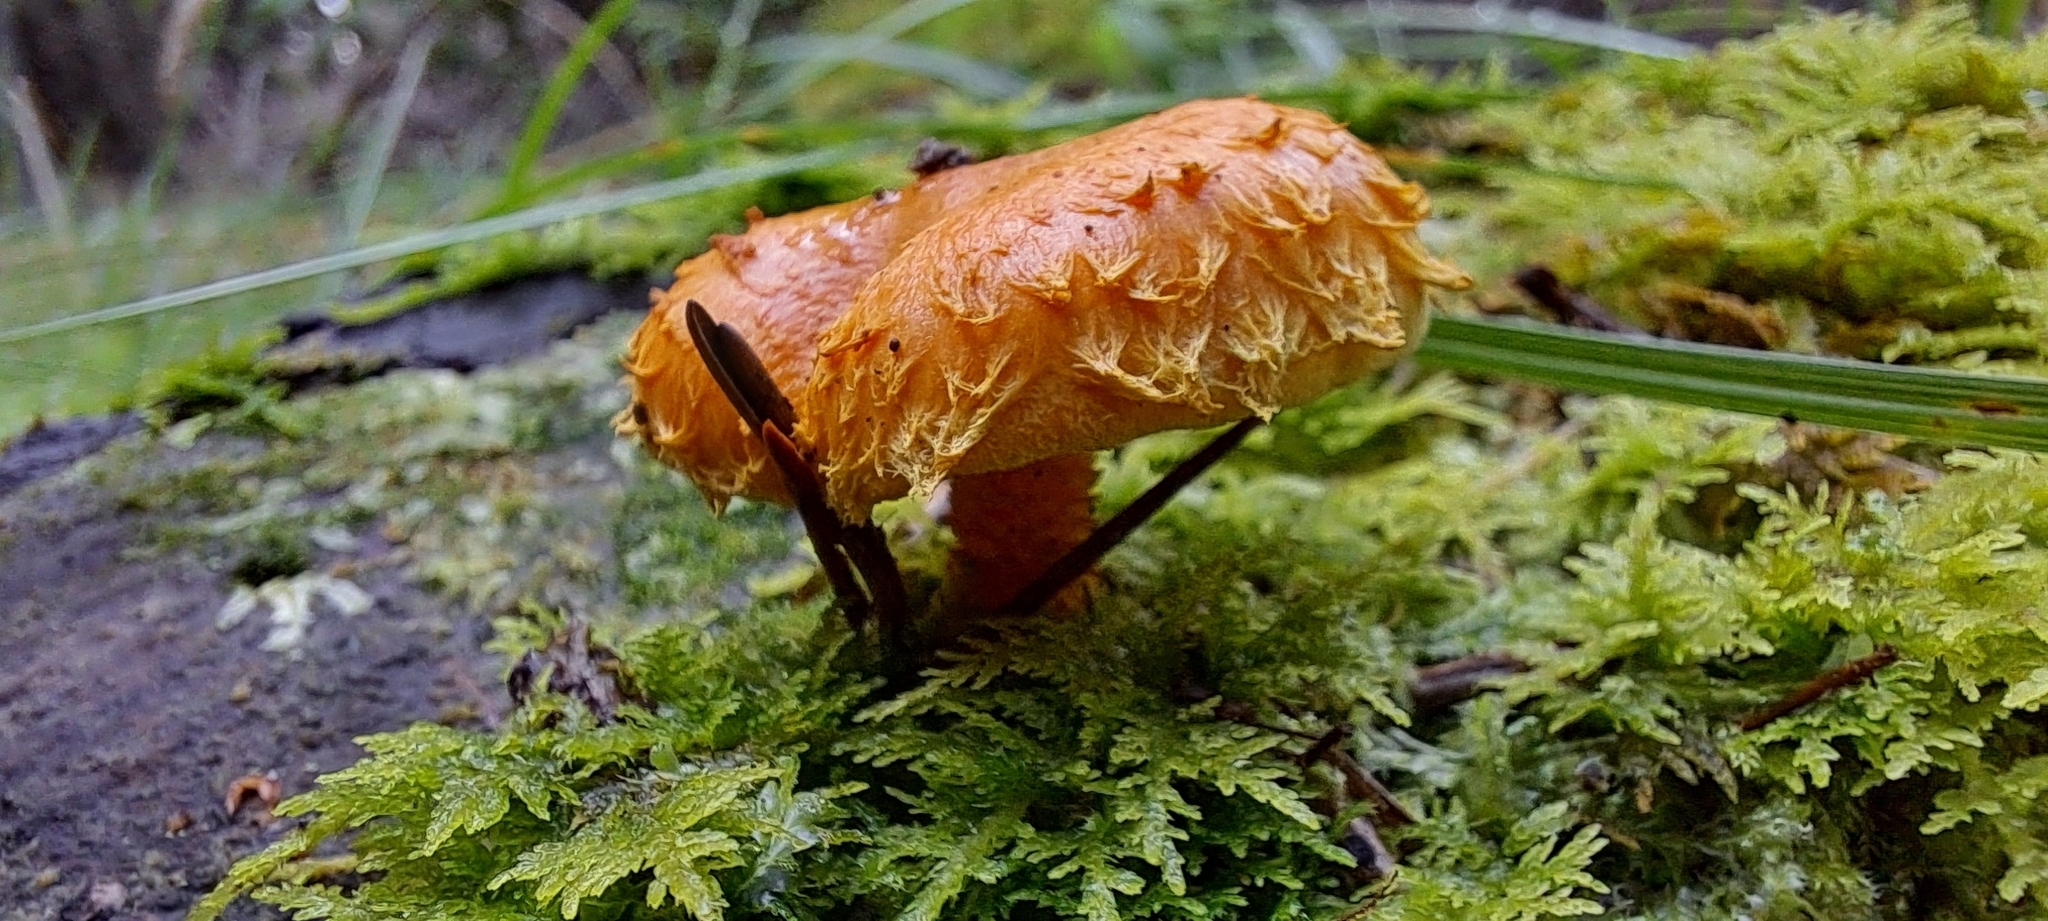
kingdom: Fungi
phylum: Basidiomycota
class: Agaricomycetes
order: Agaricales
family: Strophariaceae
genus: Pholiota
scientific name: Pholiota flammans
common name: Flaming scalycap
